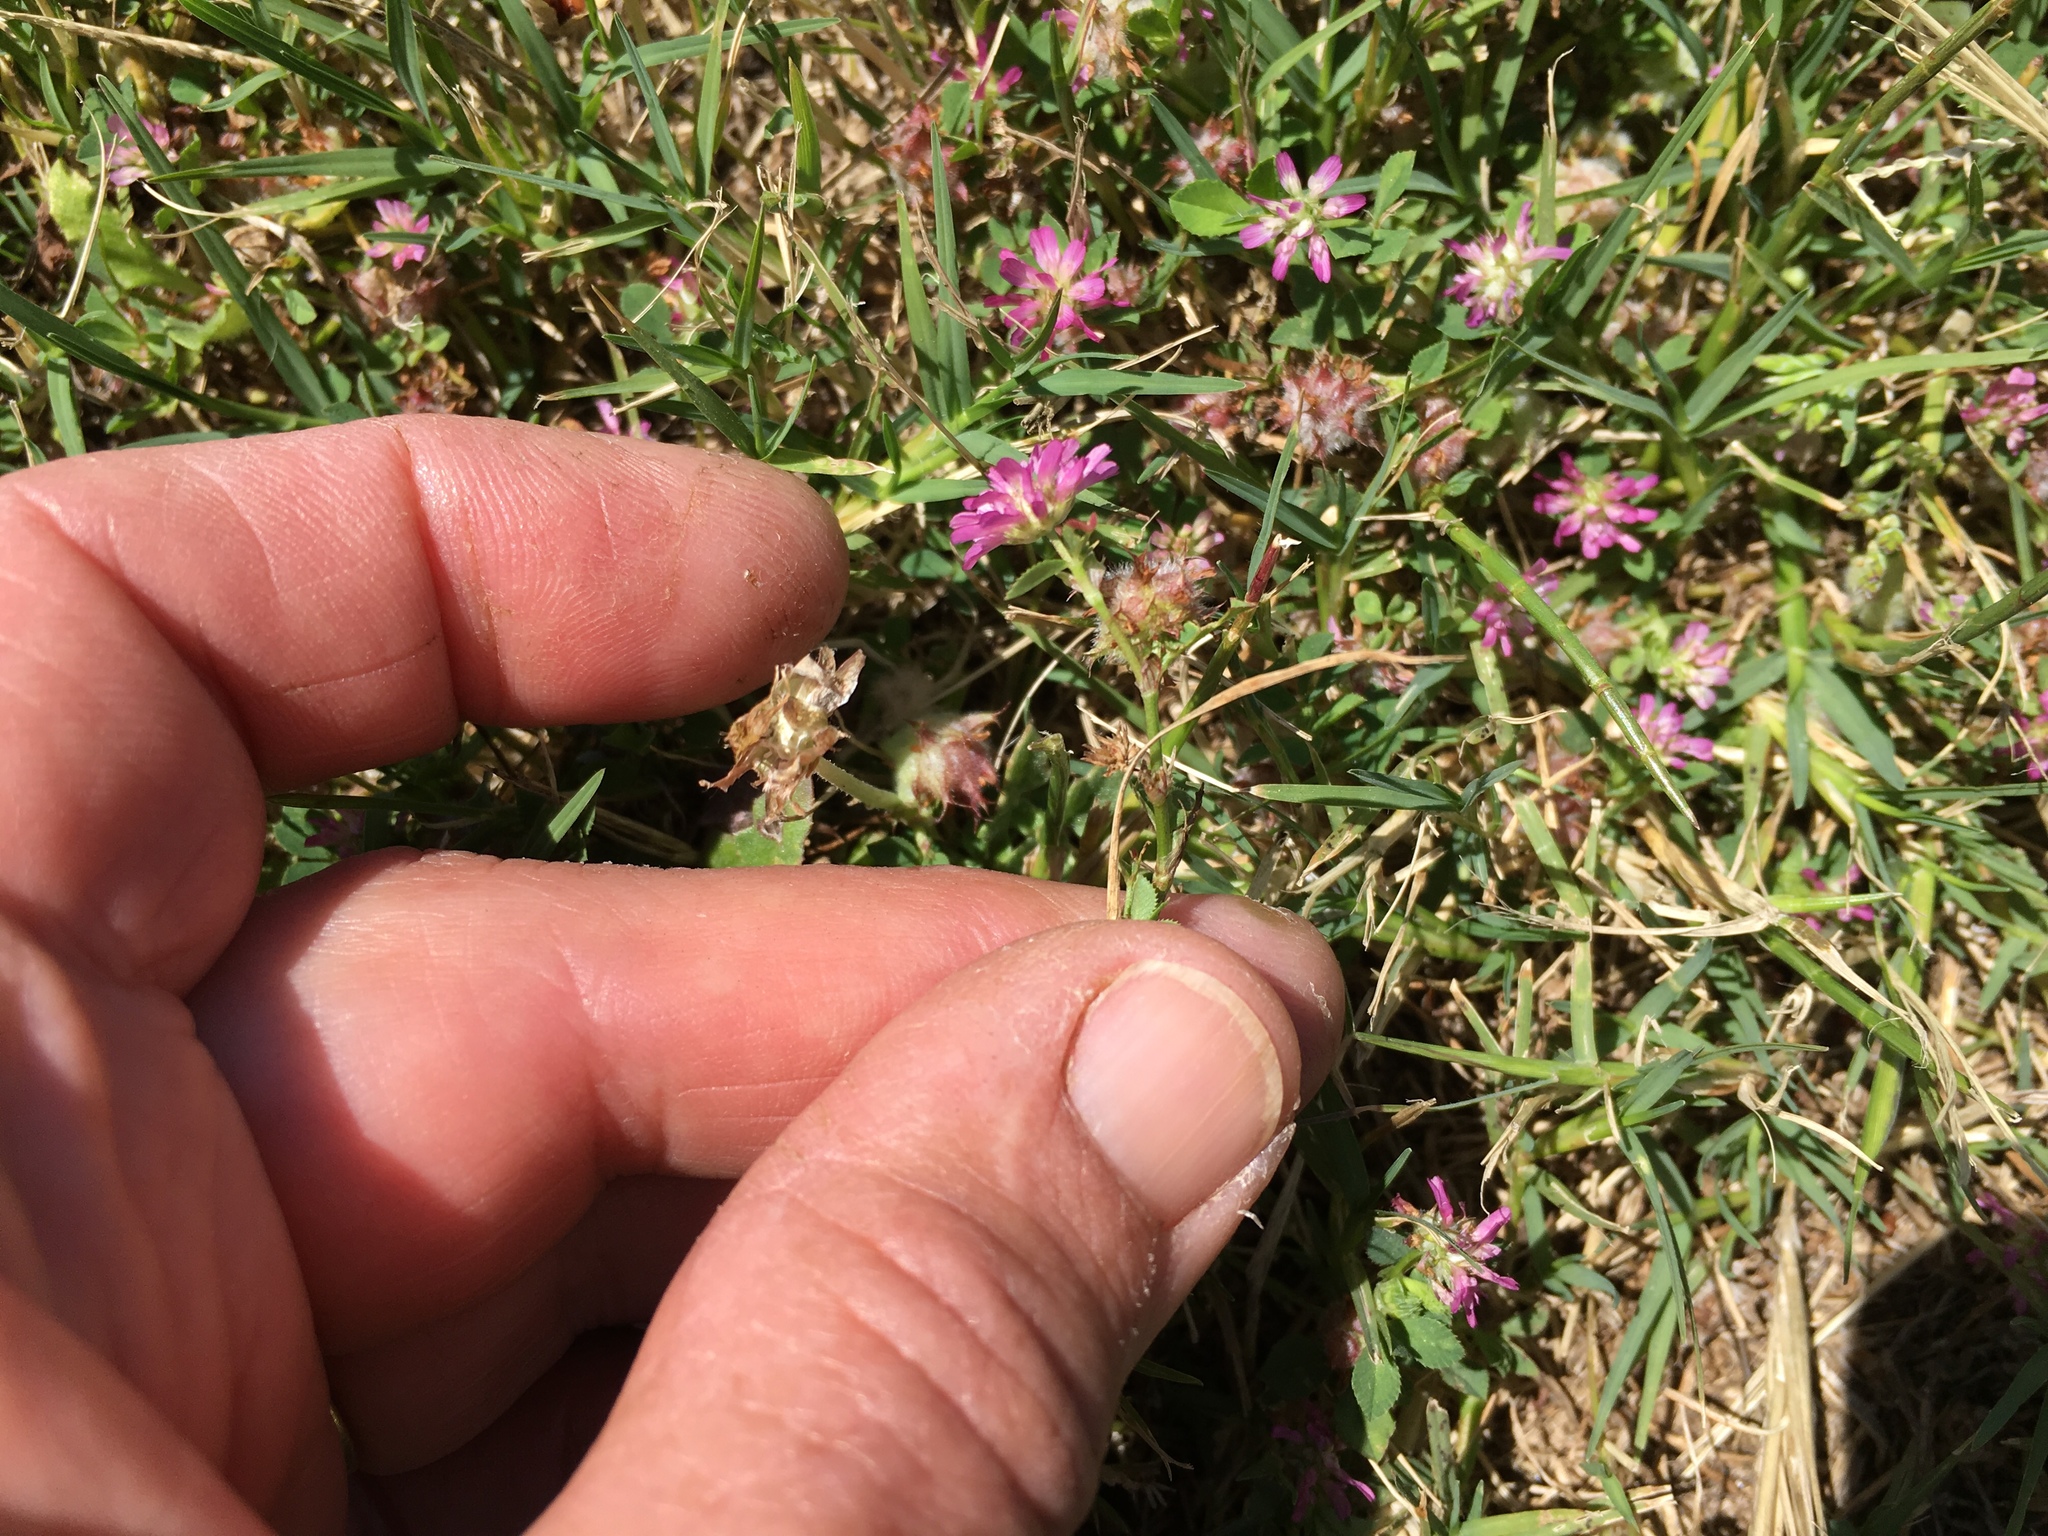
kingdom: Plantae
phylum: Tracheophyta
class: Magnoliopsida
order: Fabales
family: Fabaceae
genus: Trifolium
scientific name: Trifolium resupinatum
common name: Reversed clover
